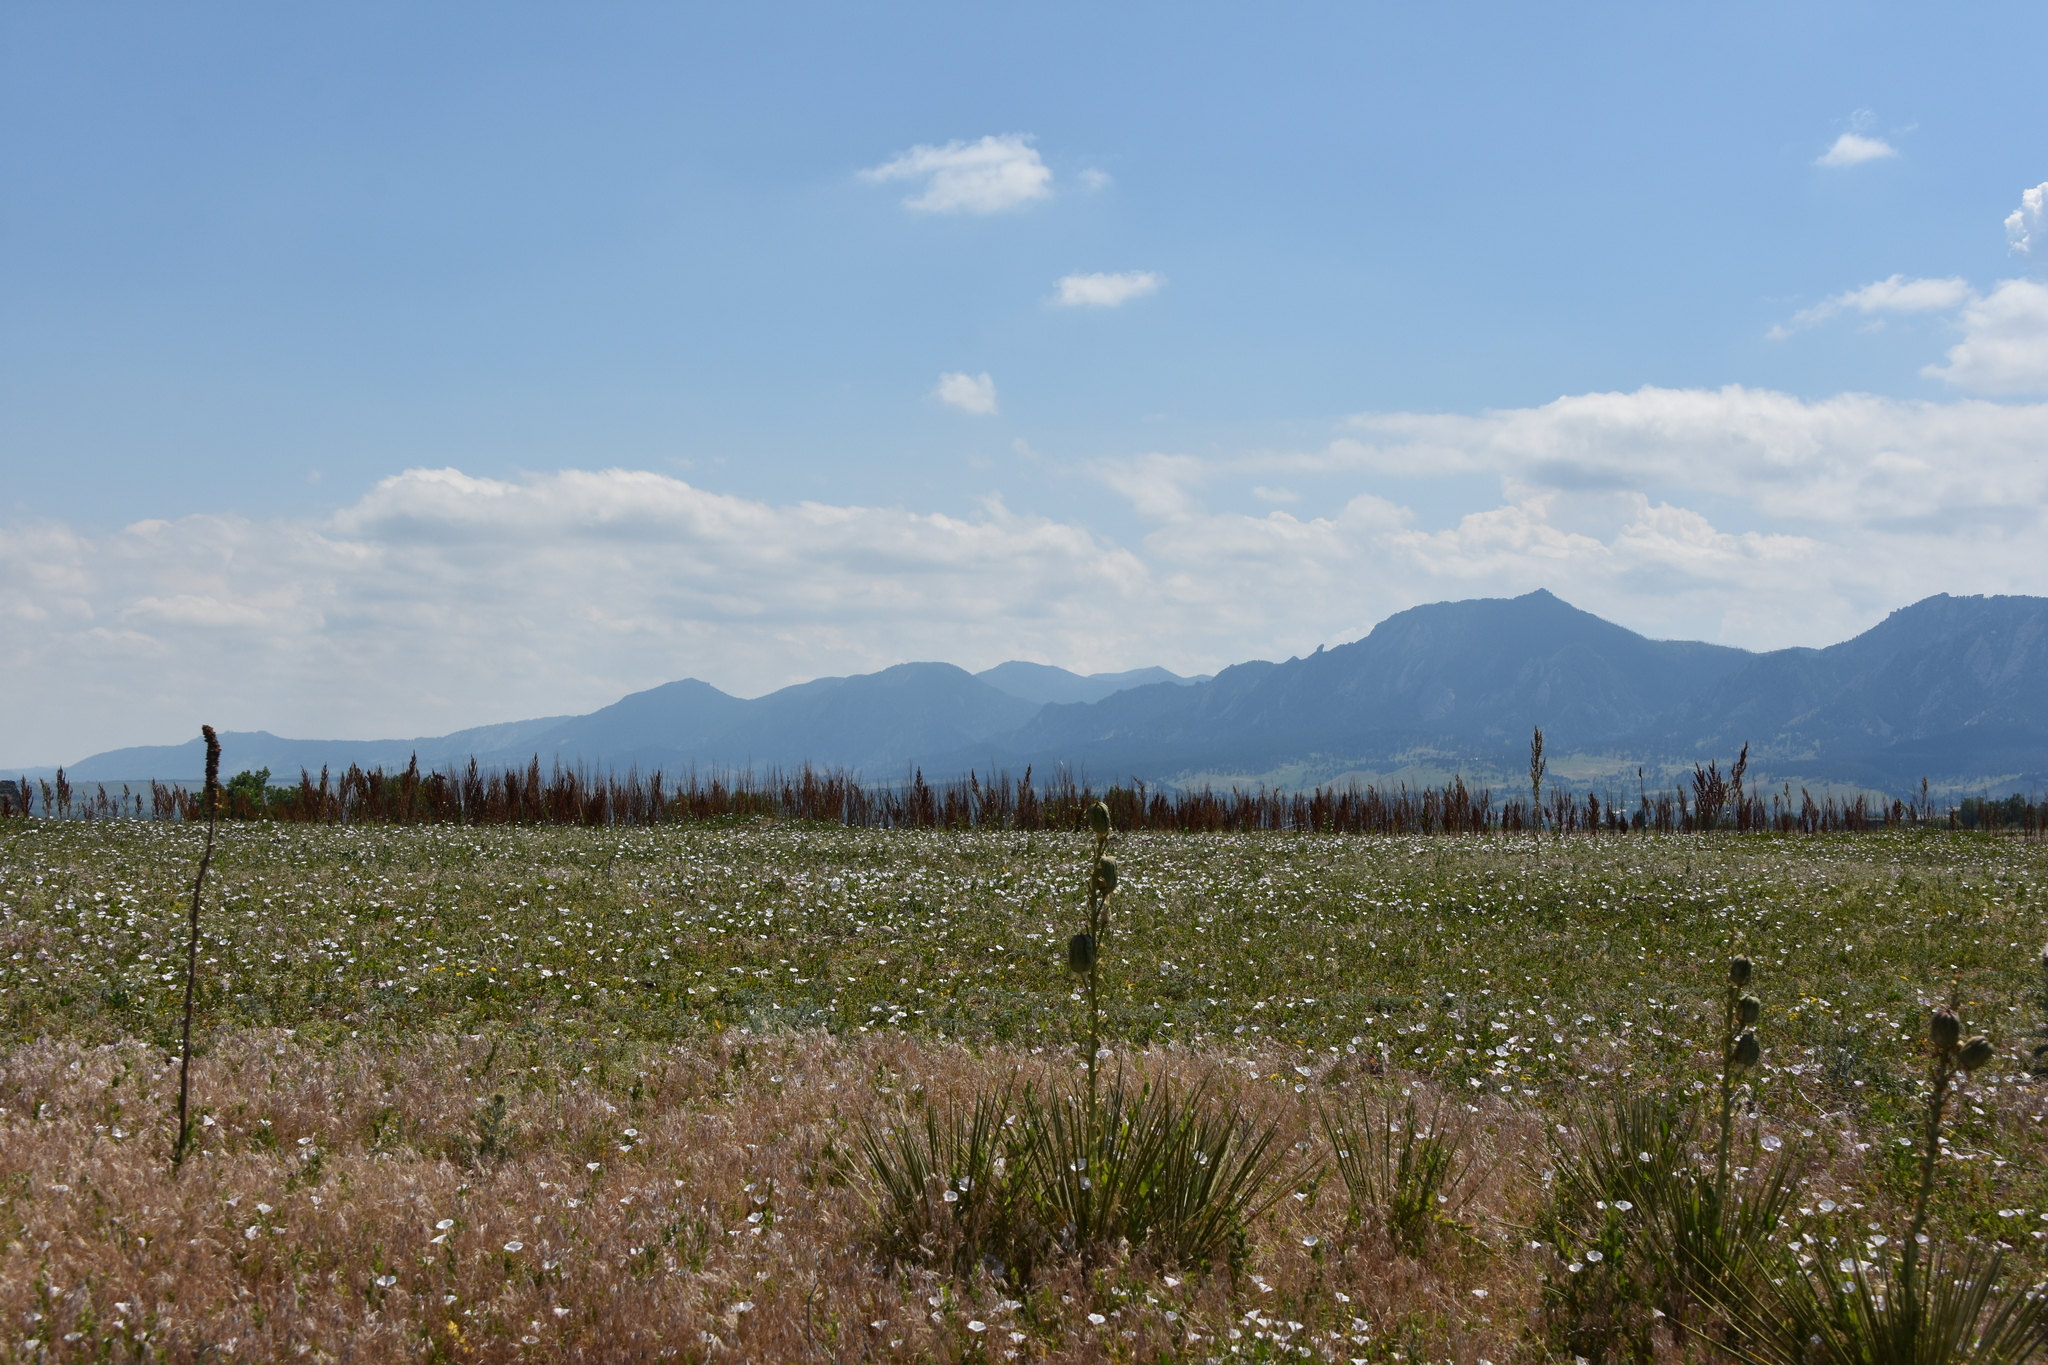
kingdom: Plantae
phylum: Tracheophyta
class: Liliopsida
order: Asparagales
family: Asparagaceae
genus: Yucca
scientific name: Yucca glauca
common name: Great plains yucca
